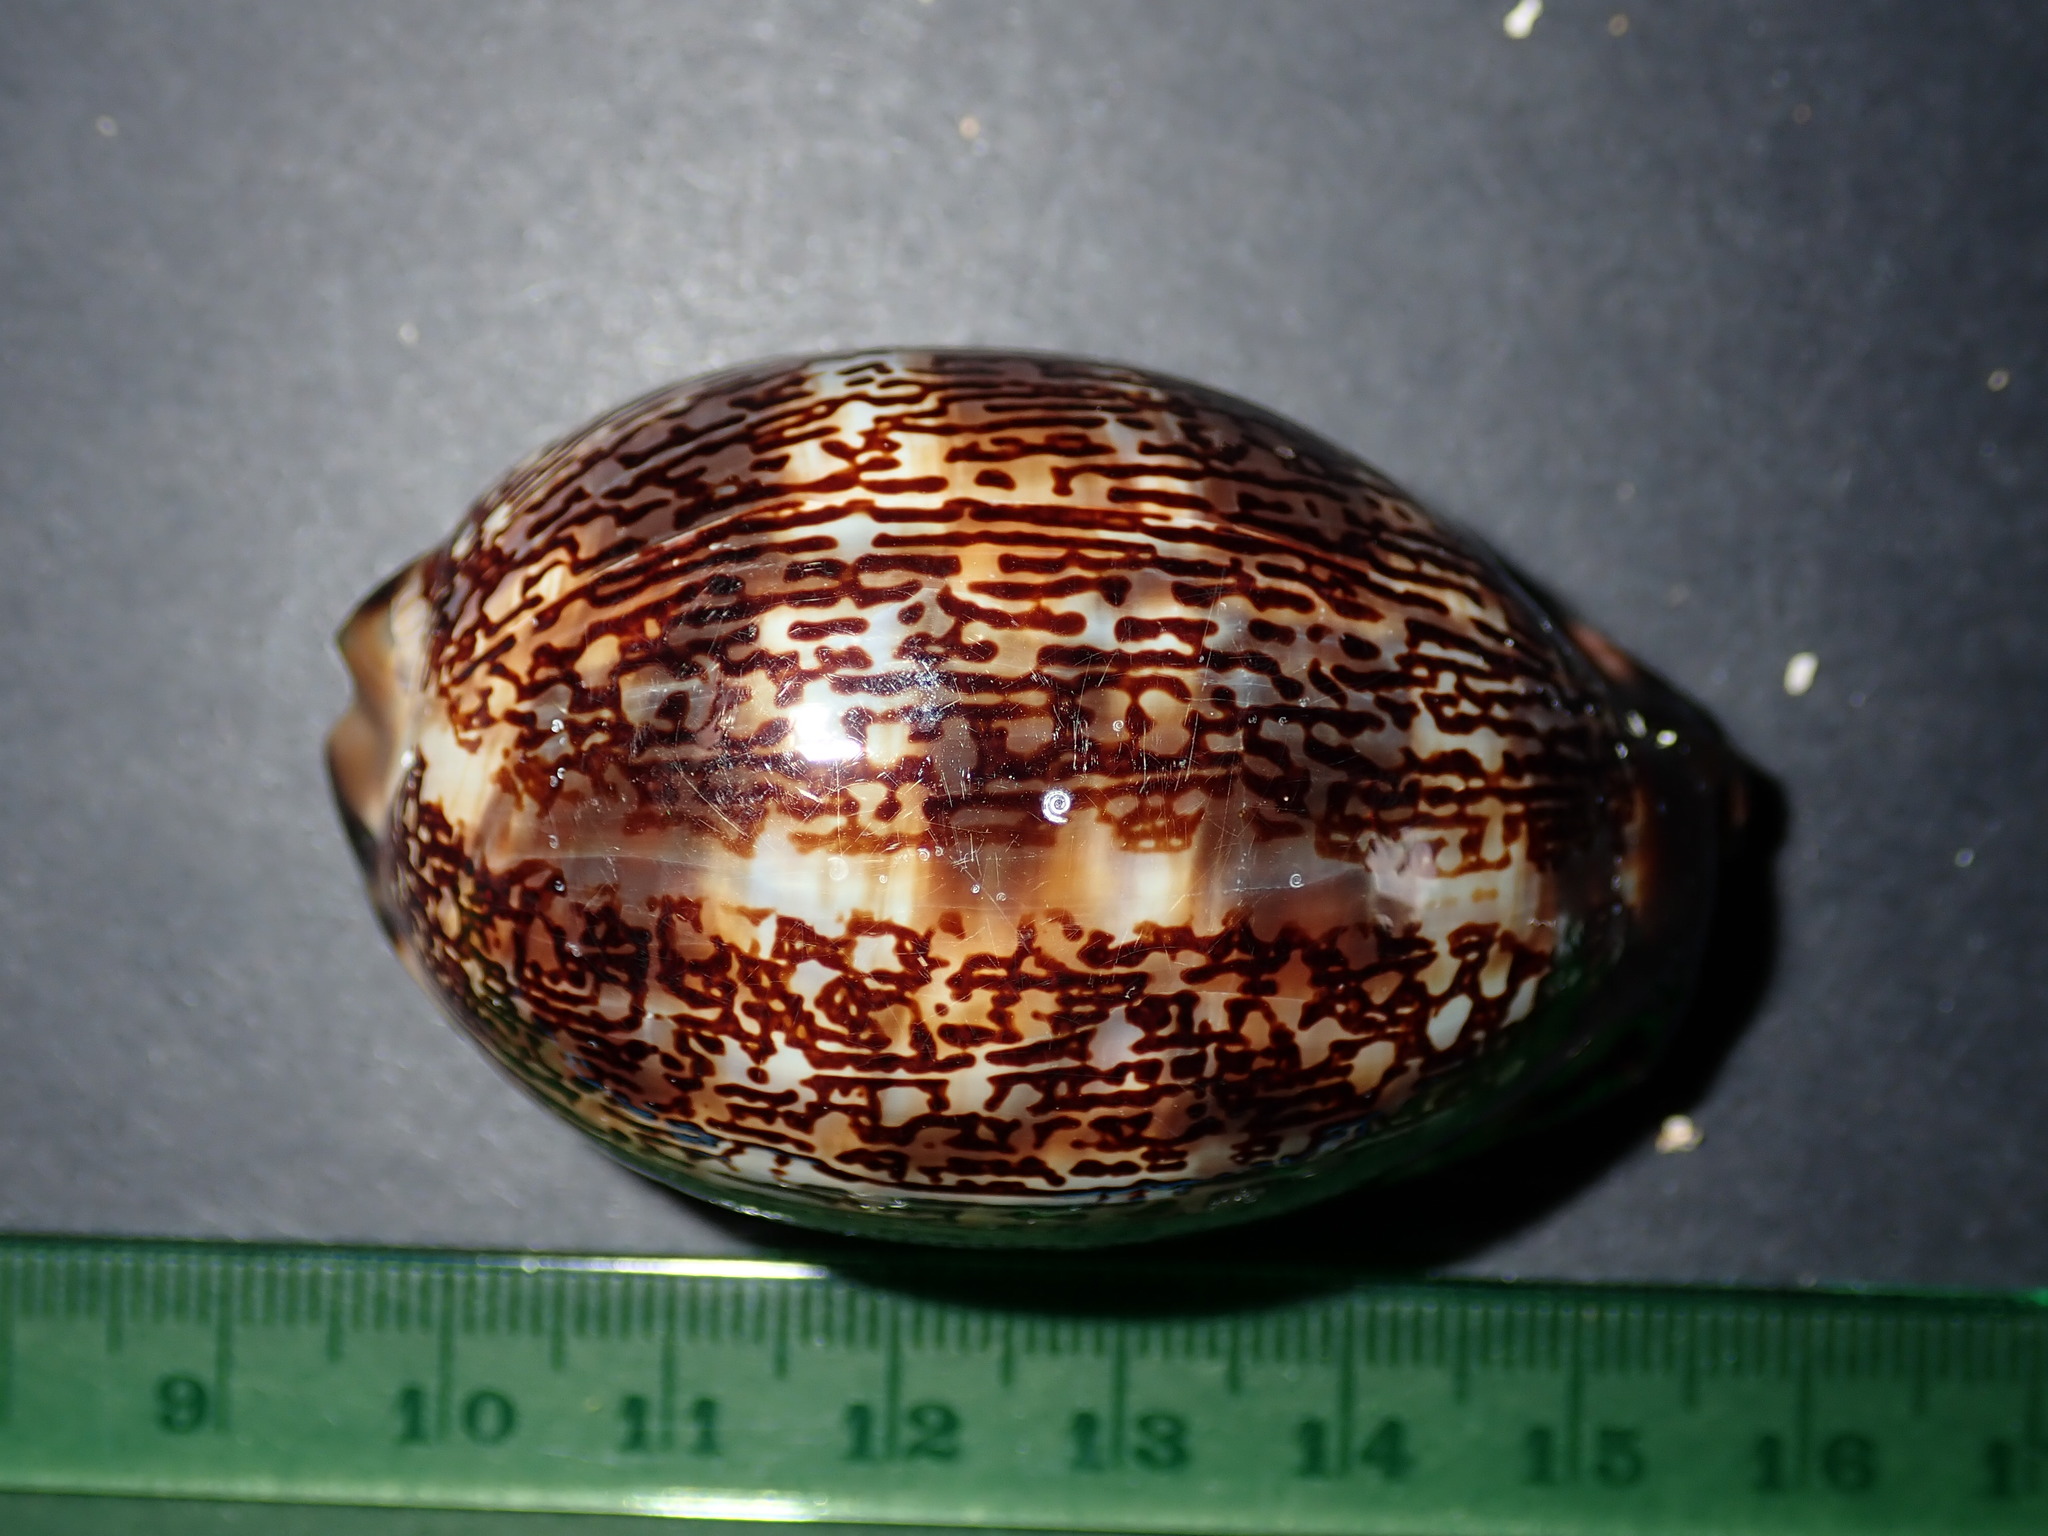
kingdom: Animalia
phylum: Mollusca
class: Gastropoda
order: Littorinimorpha
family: Cypraeidae
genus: Mauritia
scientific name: Mauritia arabica
